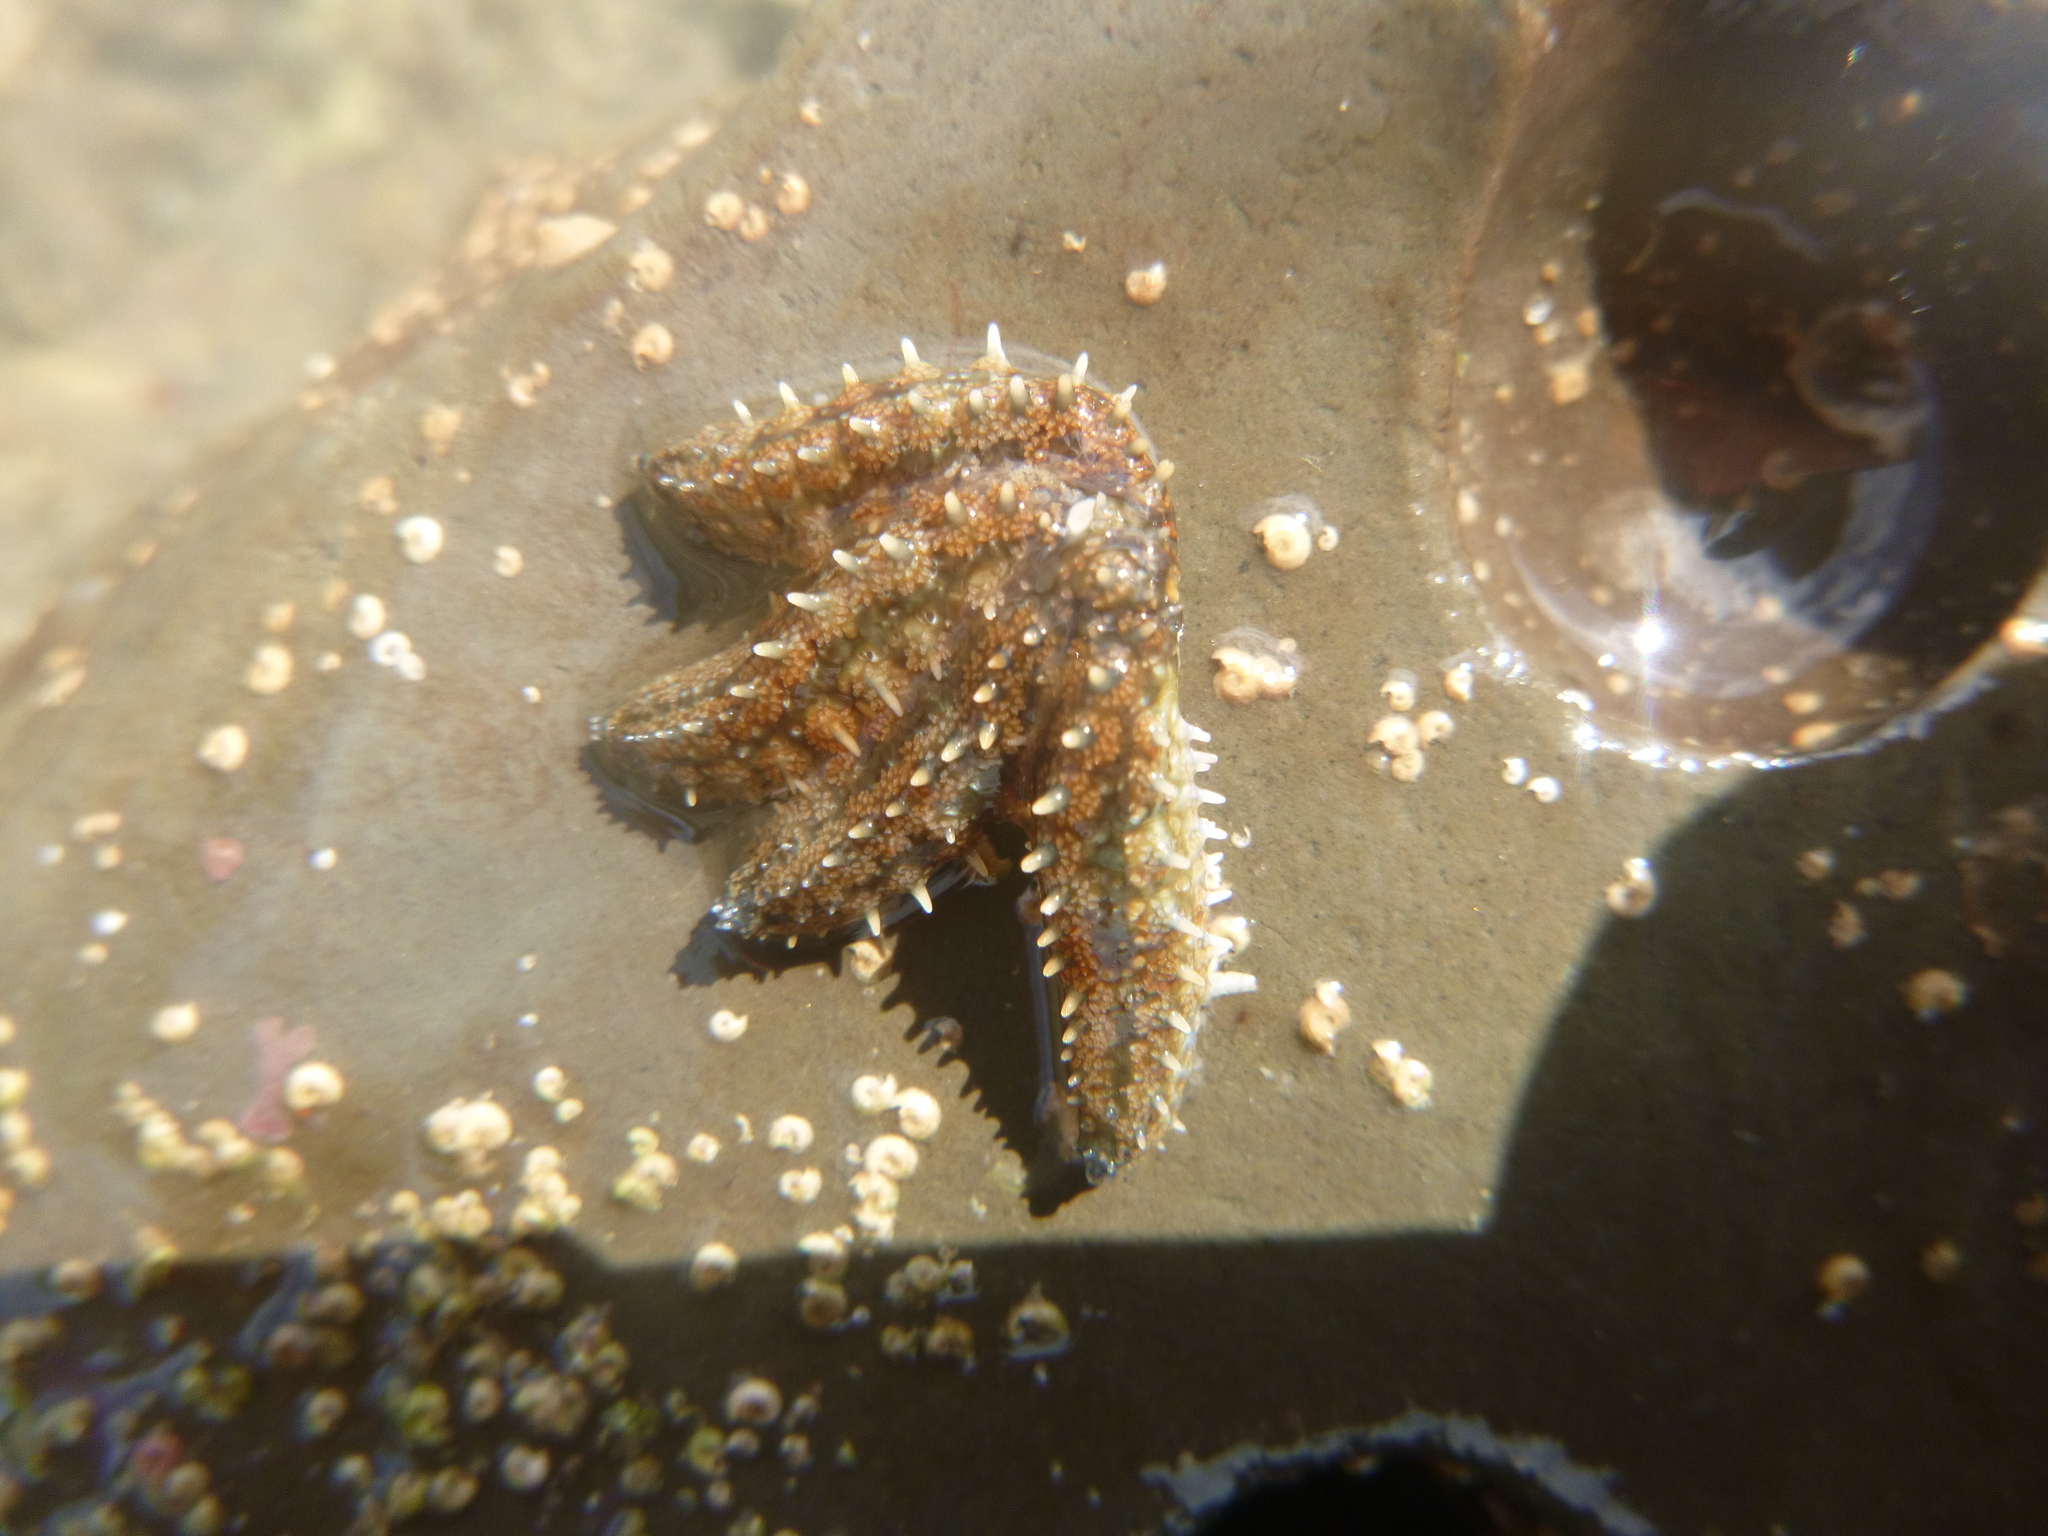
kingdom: Animalia
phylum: Echinodermata
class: Asteroidea
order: Forcipulatida
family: Asteriidae
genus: Coscinasterias
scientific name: Coscinasterias muricata
